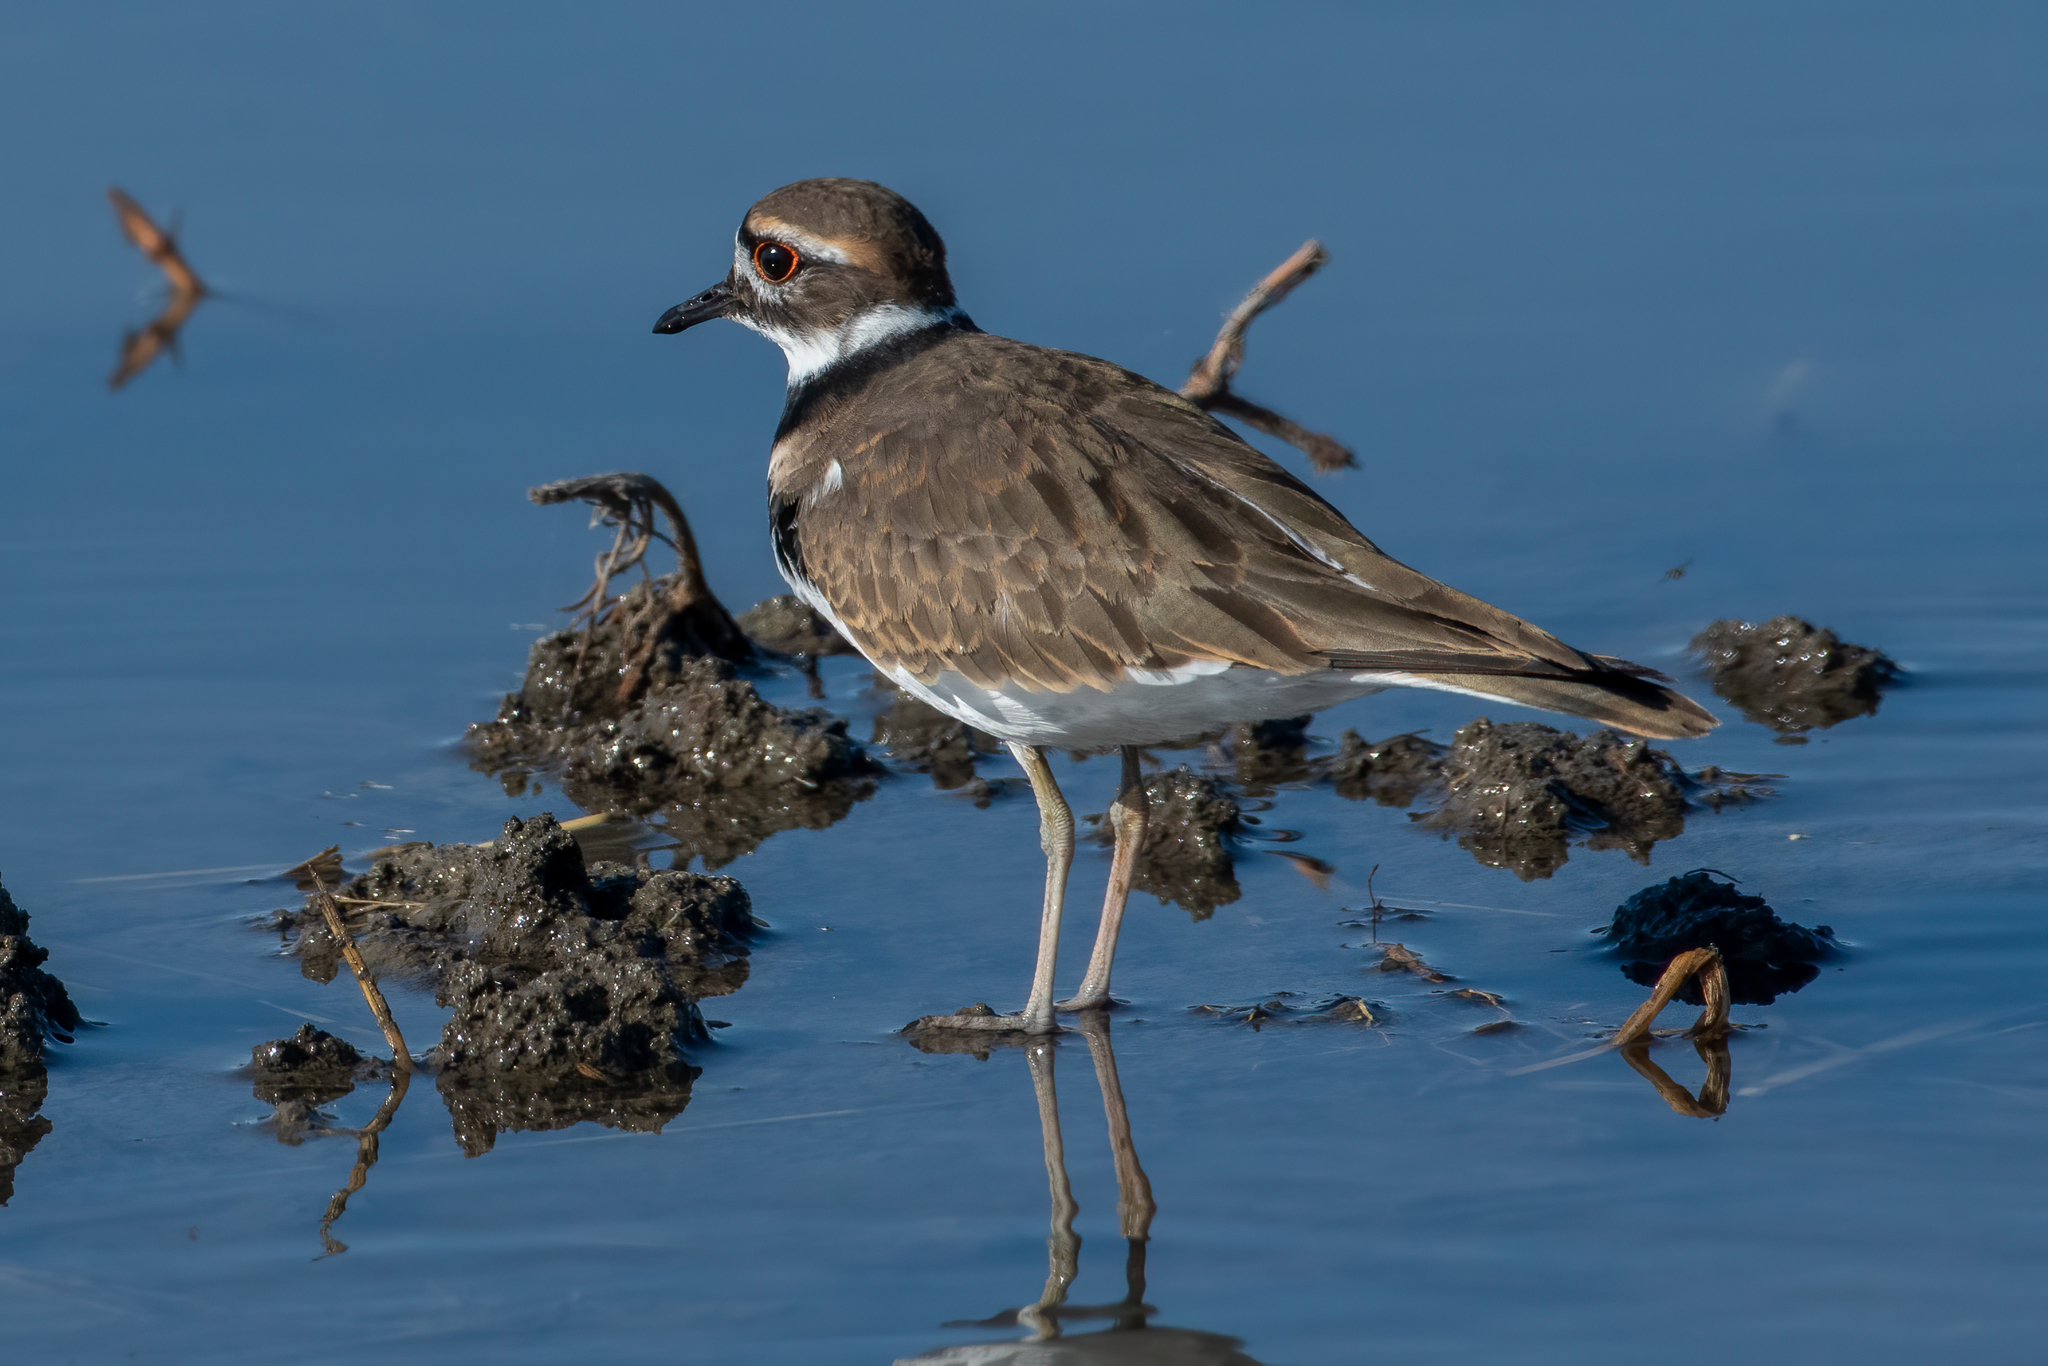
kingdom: Animalia
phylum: Chordata
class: Aves
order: Charadriiformes
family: Charadriidae
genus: Charadrius
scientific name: Charadrius vociferus
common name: Killdeer
